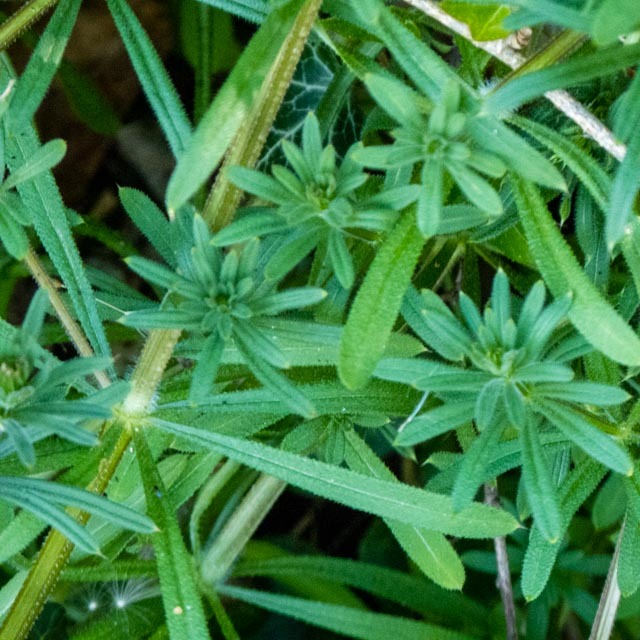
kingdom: Plantae
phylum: Tracheophyta
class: Magnoliopsida
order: Gentianales
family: Rubiaceae
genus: Galium
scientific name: Galium aparine
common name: Cleavers
